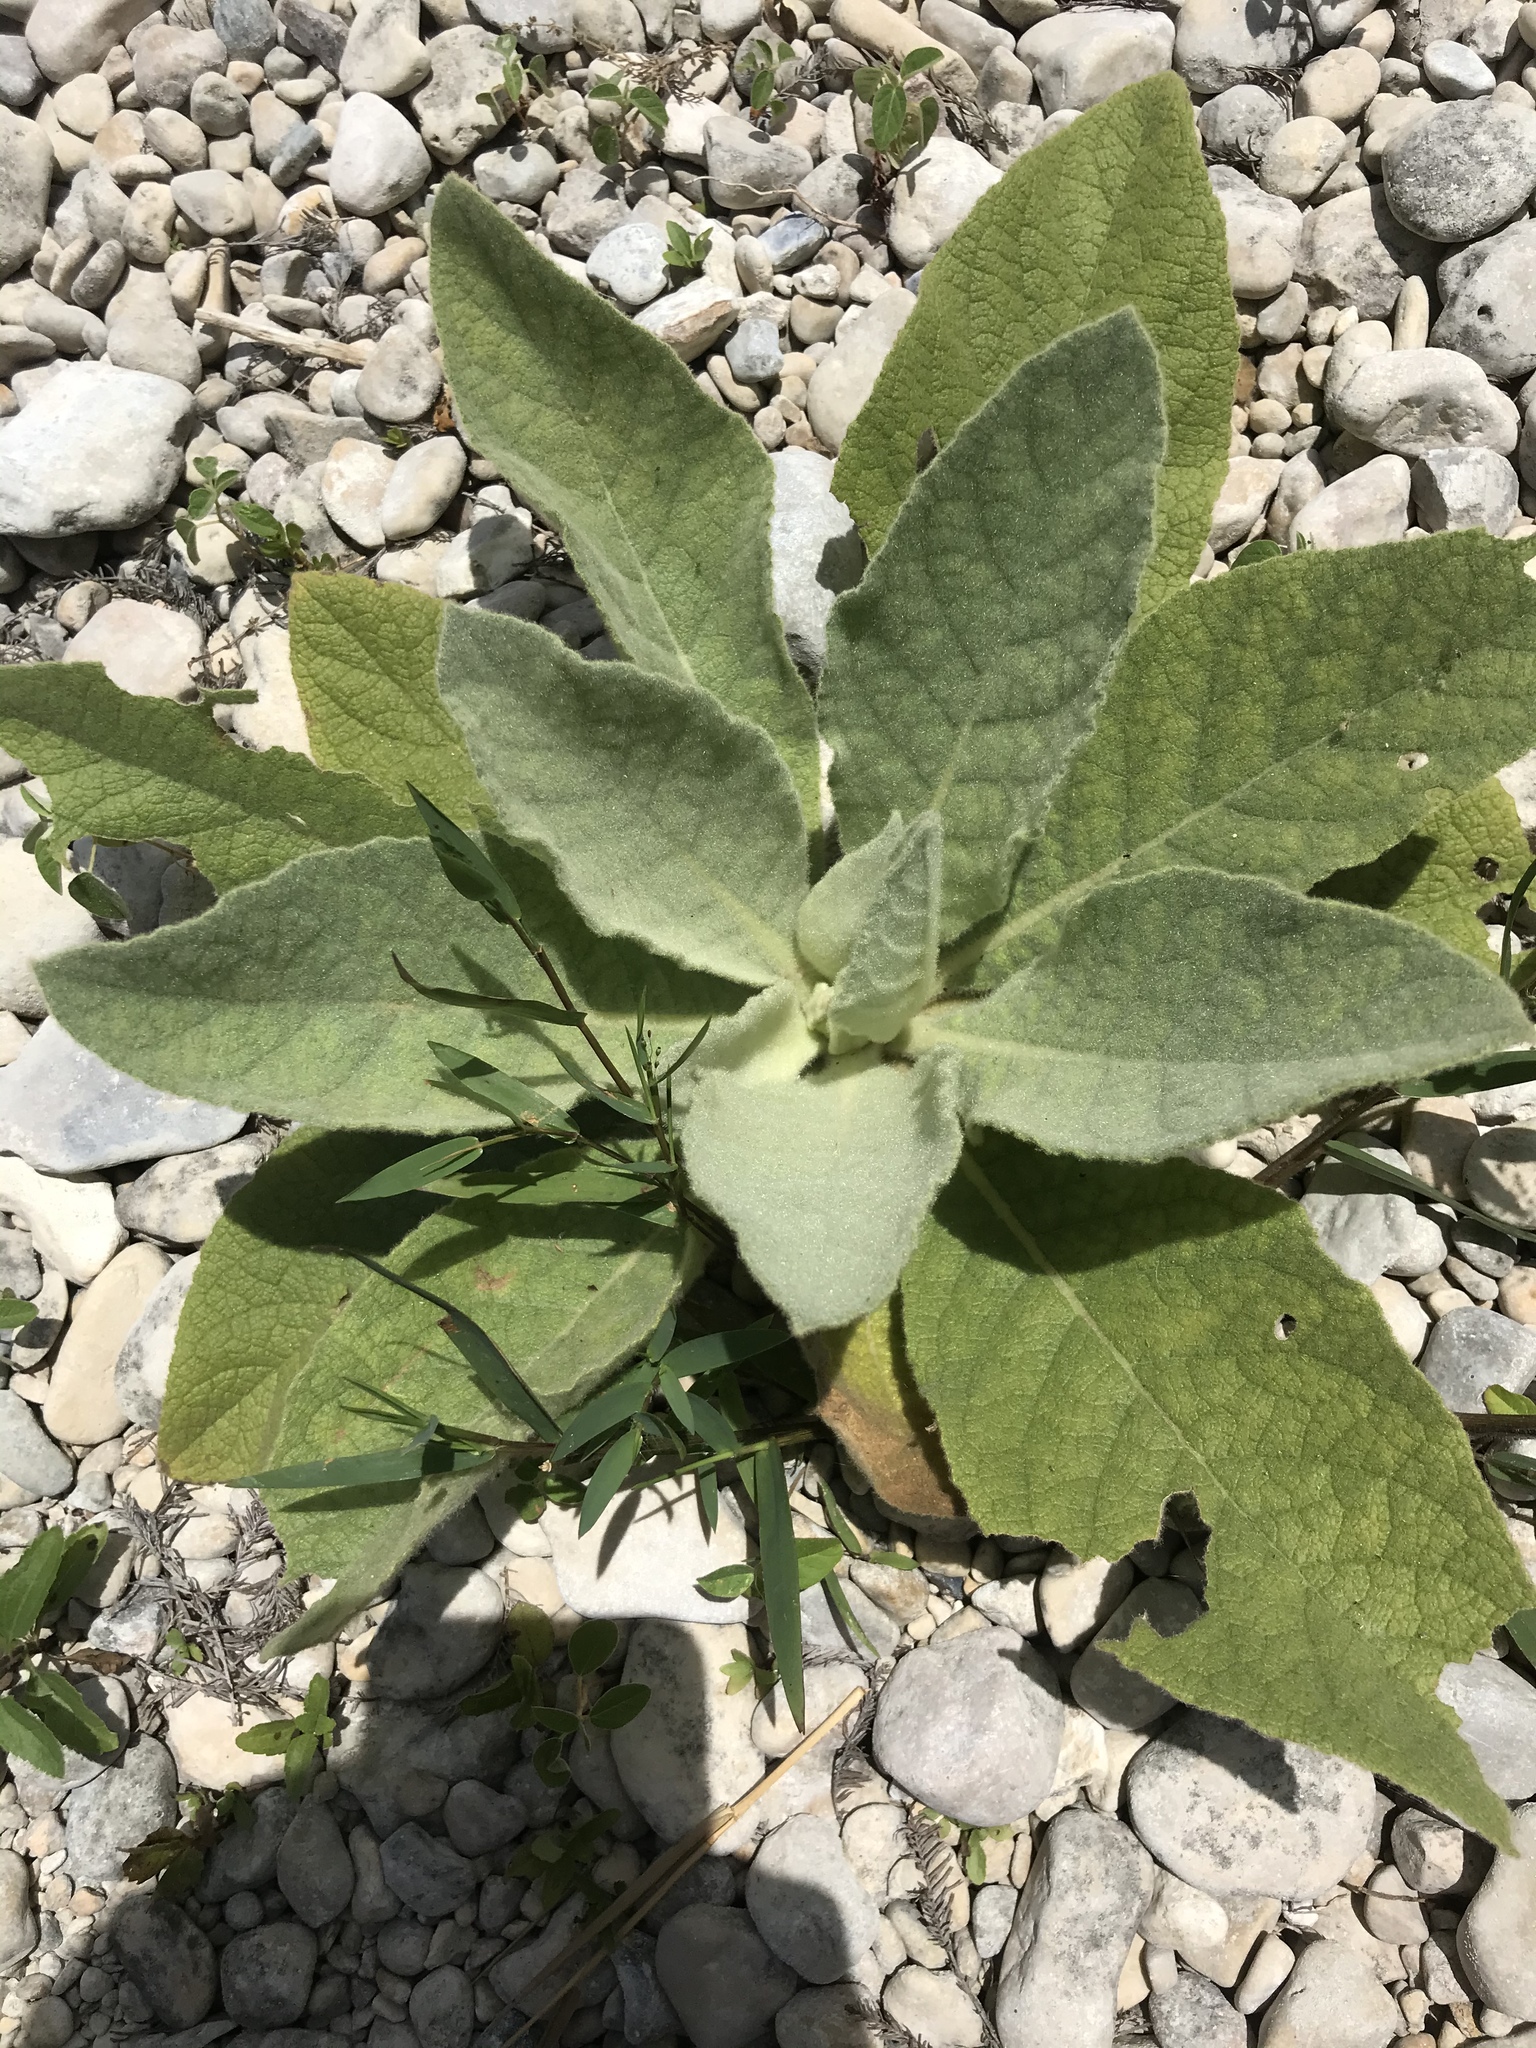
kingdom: Plantae
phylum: Tracheophyta
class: Magnoliopsida
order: Lamiales
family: Scrophulariaceae
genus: Verbascum
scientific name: Verbascum thapsus
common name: Common mullein
